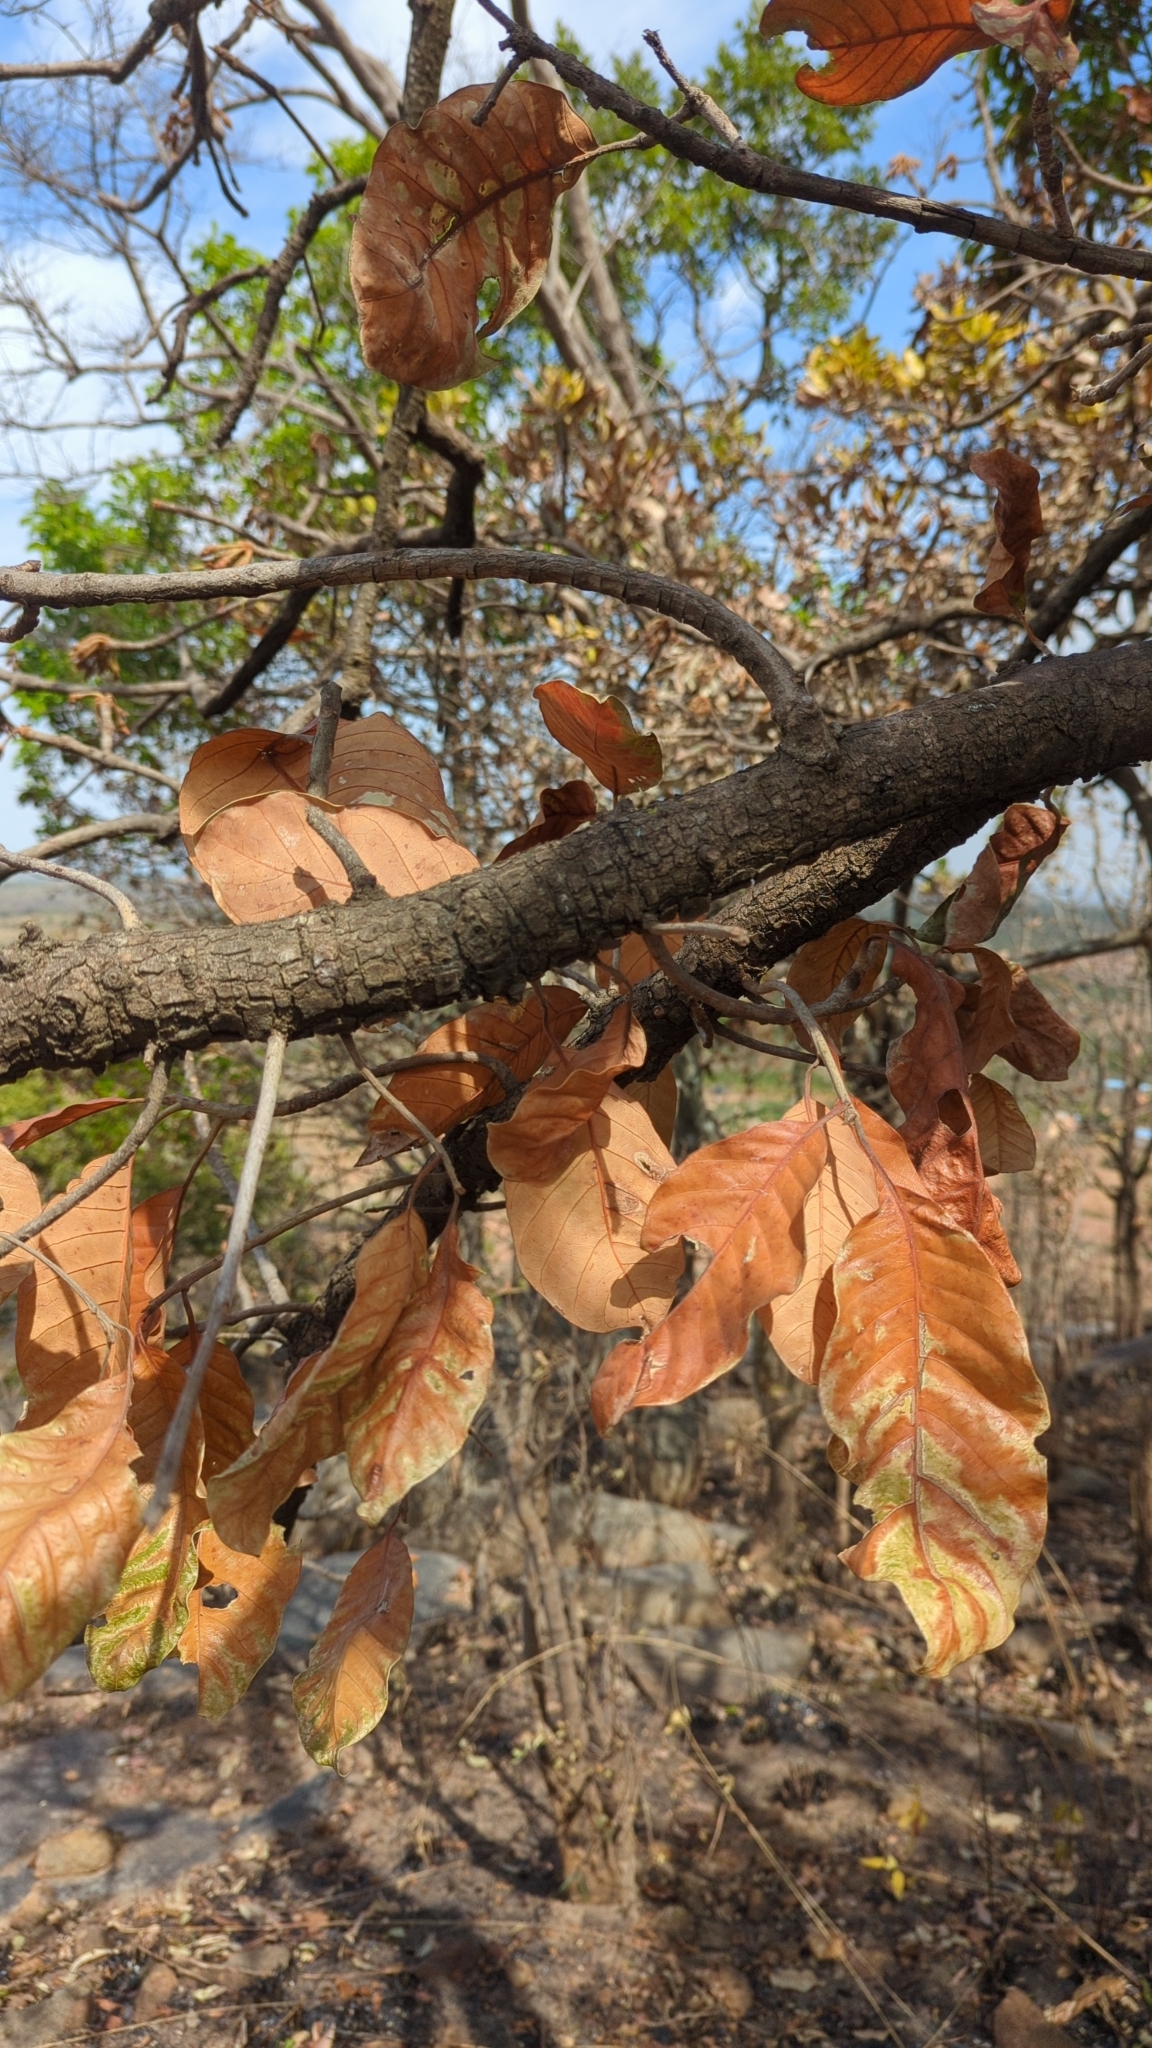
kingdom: Plantae
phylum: Tracheophyta
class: Magnoliopsida
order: Ericales
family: Sapotaceae
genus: Madhuca
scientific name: Madhuca longifolia
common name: Mowra-buttertree
